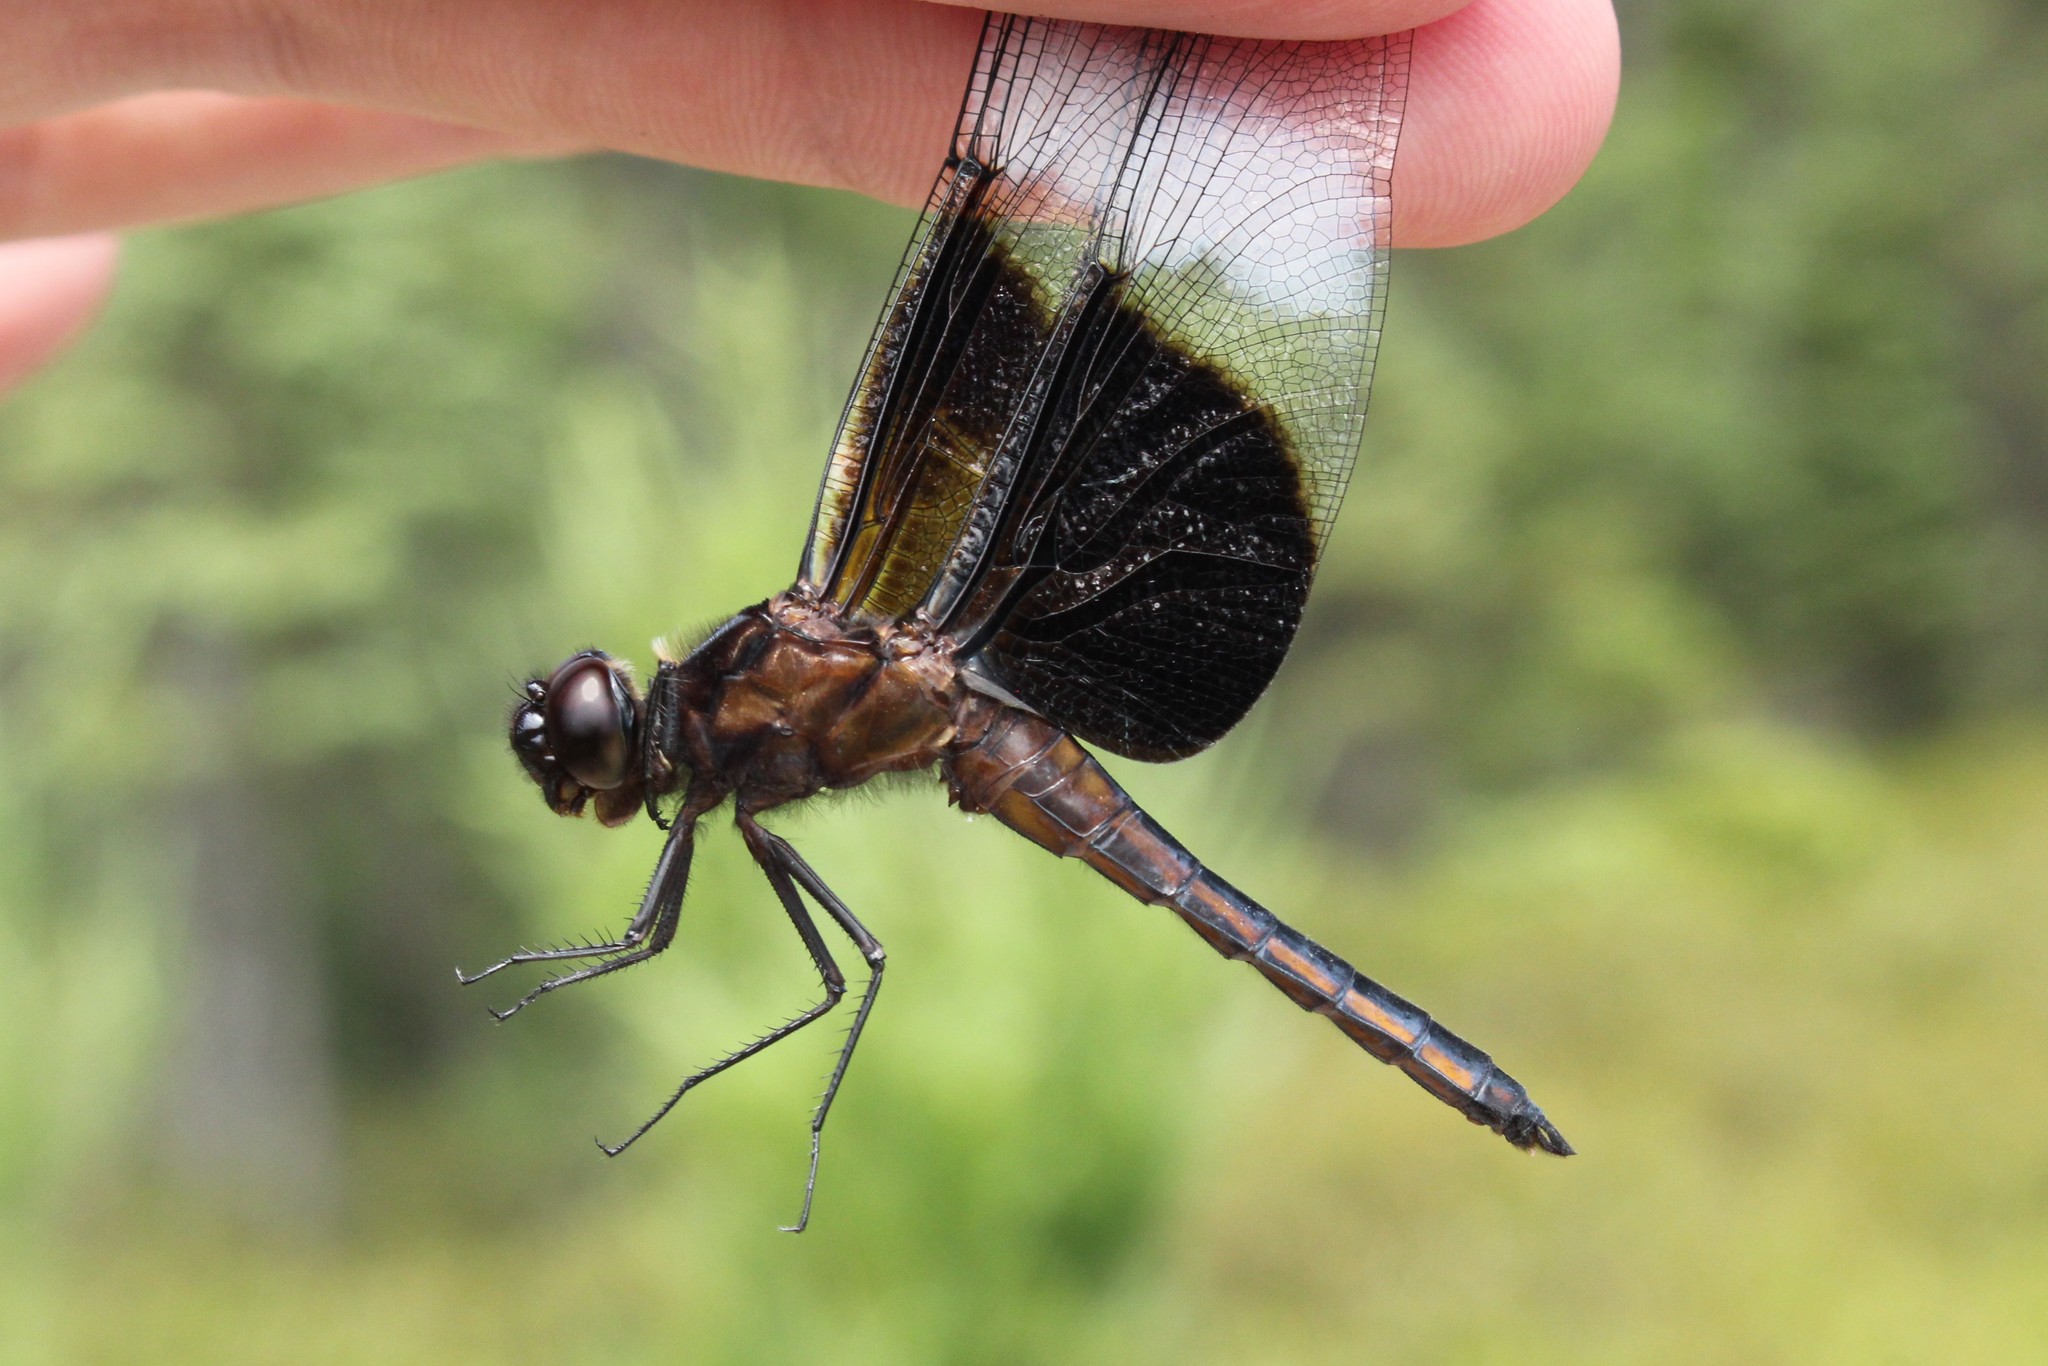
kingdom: Animalia
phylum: Arthropoda
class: Insecta
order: Odonata
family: Libellulidae
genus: Libellula
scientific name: Libellula luctuosa
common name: Widow skimmer
